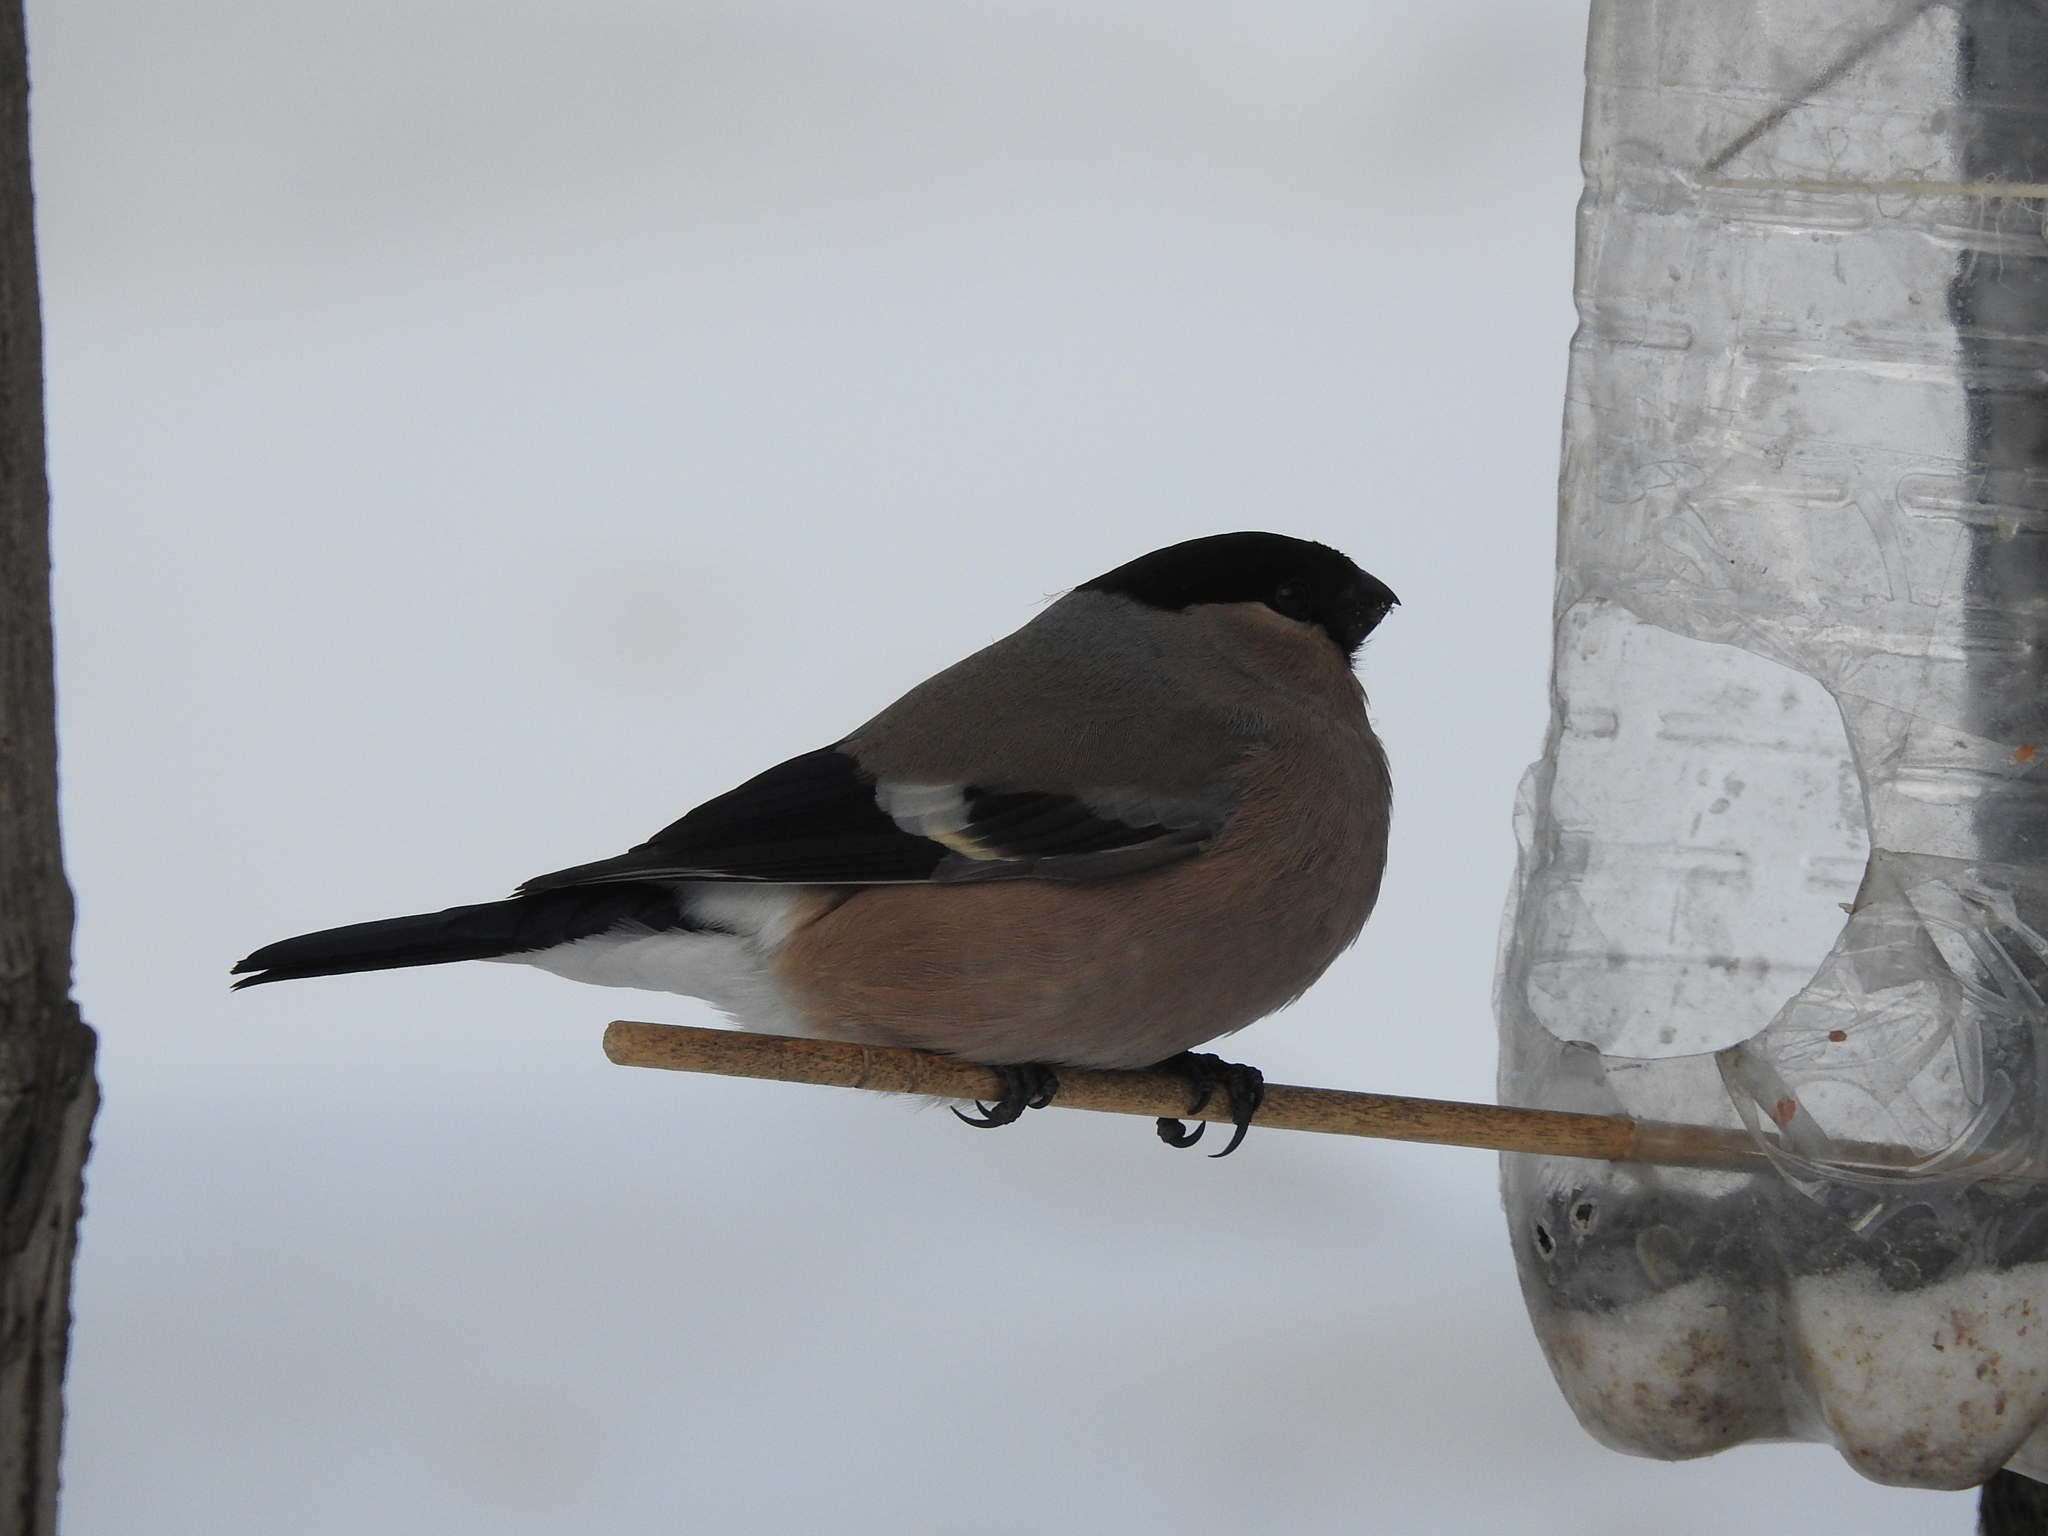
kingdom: Animalia
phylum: Chordata
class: Aves
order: Passeriformes
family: Fringillidae
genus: Pyrrhula
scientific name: Pyrrhula pyrrhula
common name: Eurasian bullfinch
